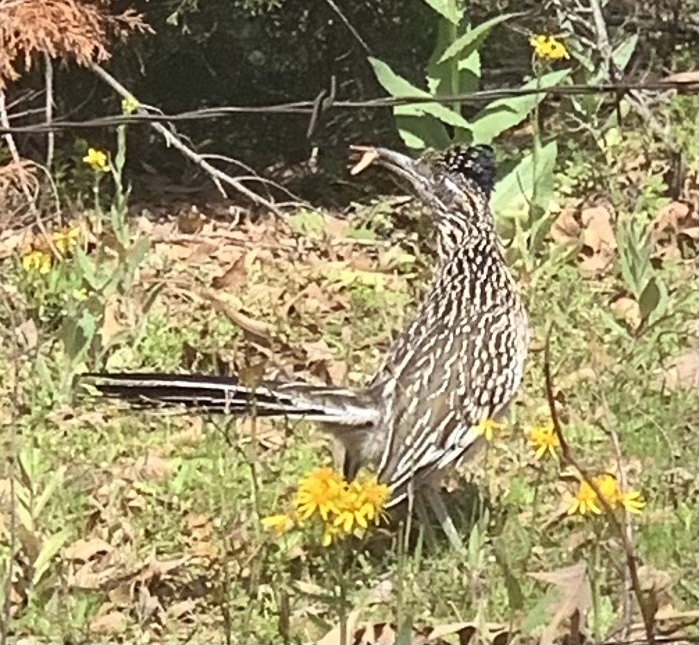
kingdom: Animalia
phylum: Chordata
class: Aves
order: Cuculiformes
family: Cuculidae
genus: Geococcyx
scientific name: Geococcyx californianus
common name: Greater roadrunner
